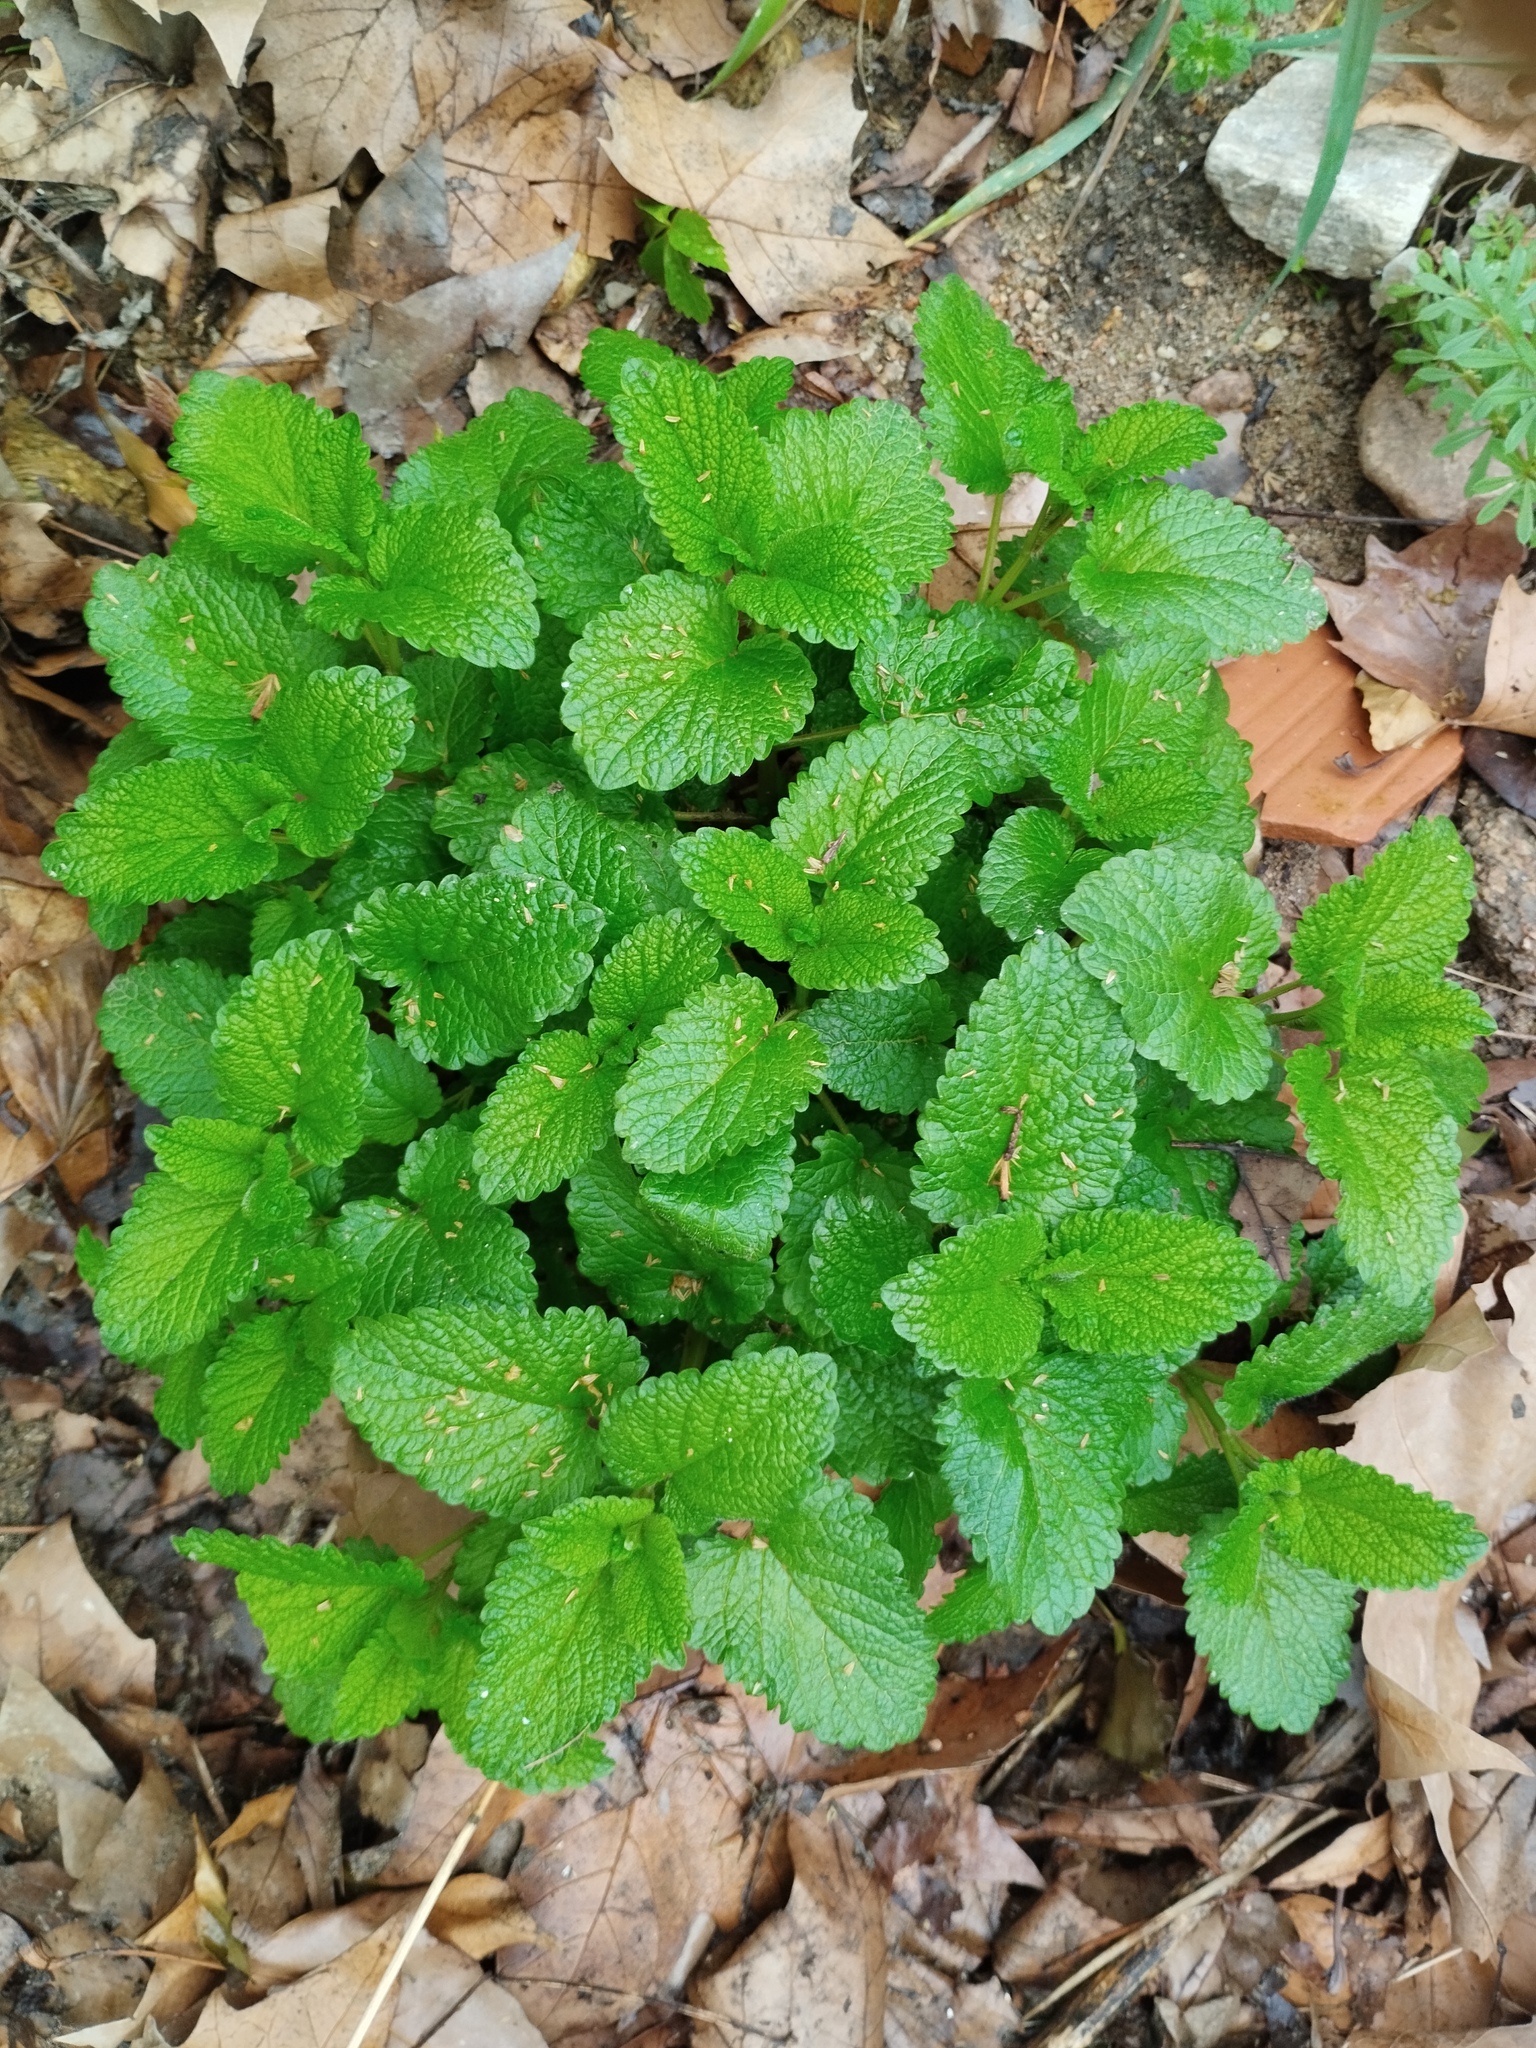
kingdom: Plantae
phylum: Tracheophyta
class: Magnoliopsida
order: Lamiales
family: Lamiaceae
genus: Melissa
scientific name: Melissa officinalis
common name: Balm
